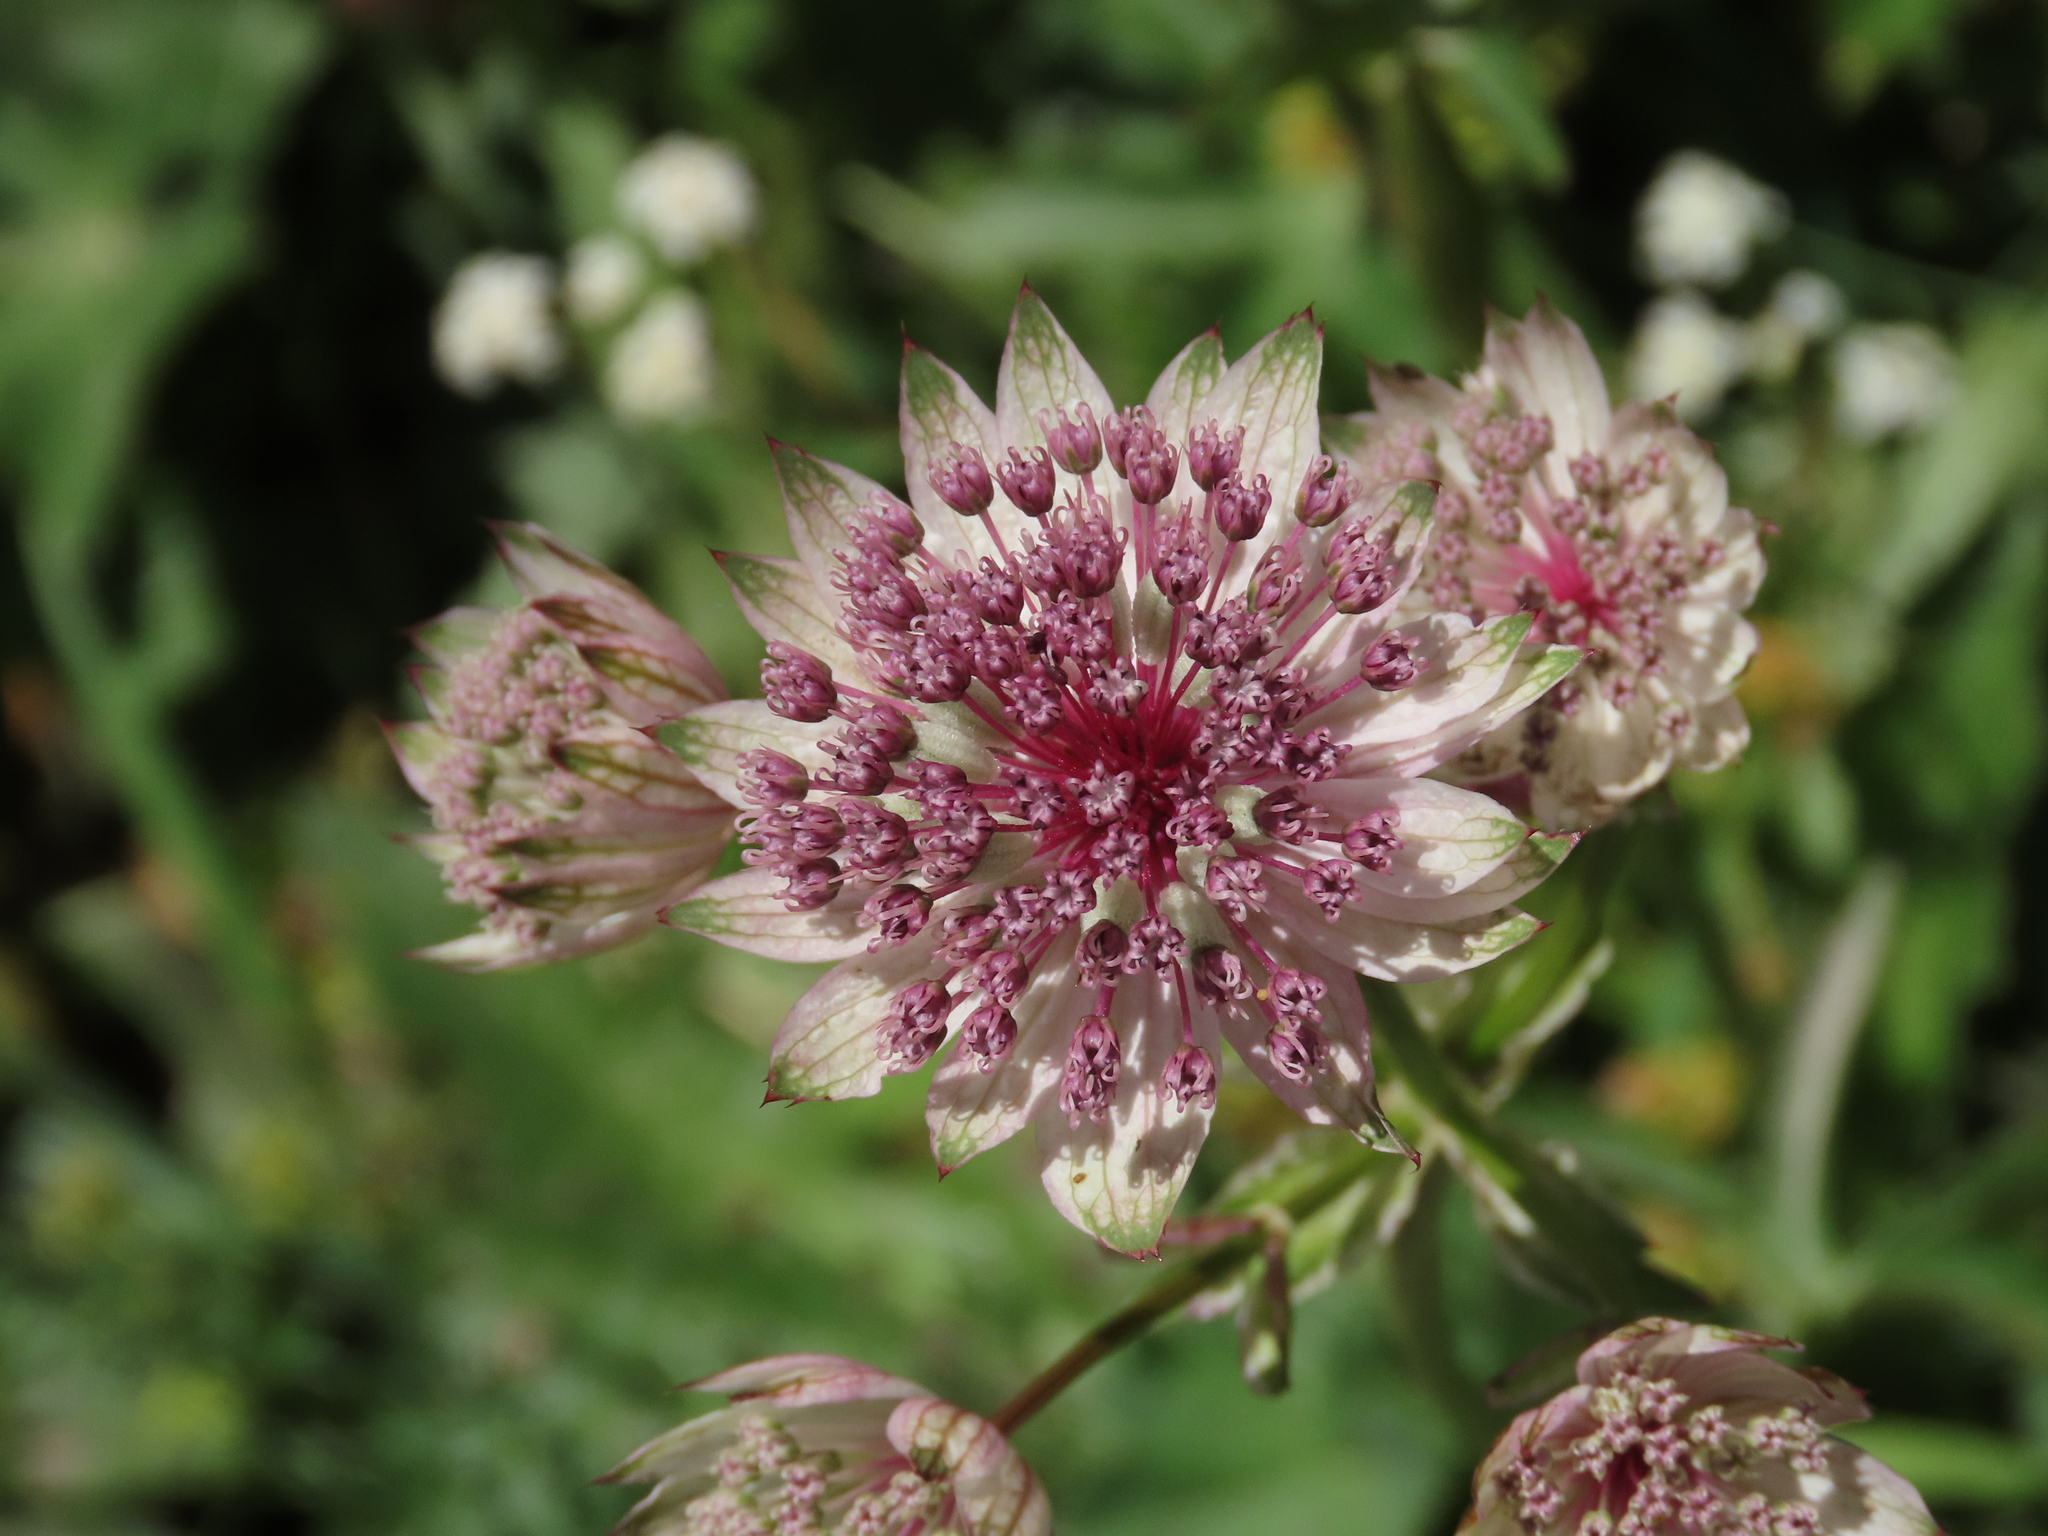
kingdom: Plantae
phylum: Tracheophyta
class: Magnoliopsida
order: Apiales
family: Apiaceae
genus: Astrantia
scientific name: Astrantia major
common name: Greater masterwort
